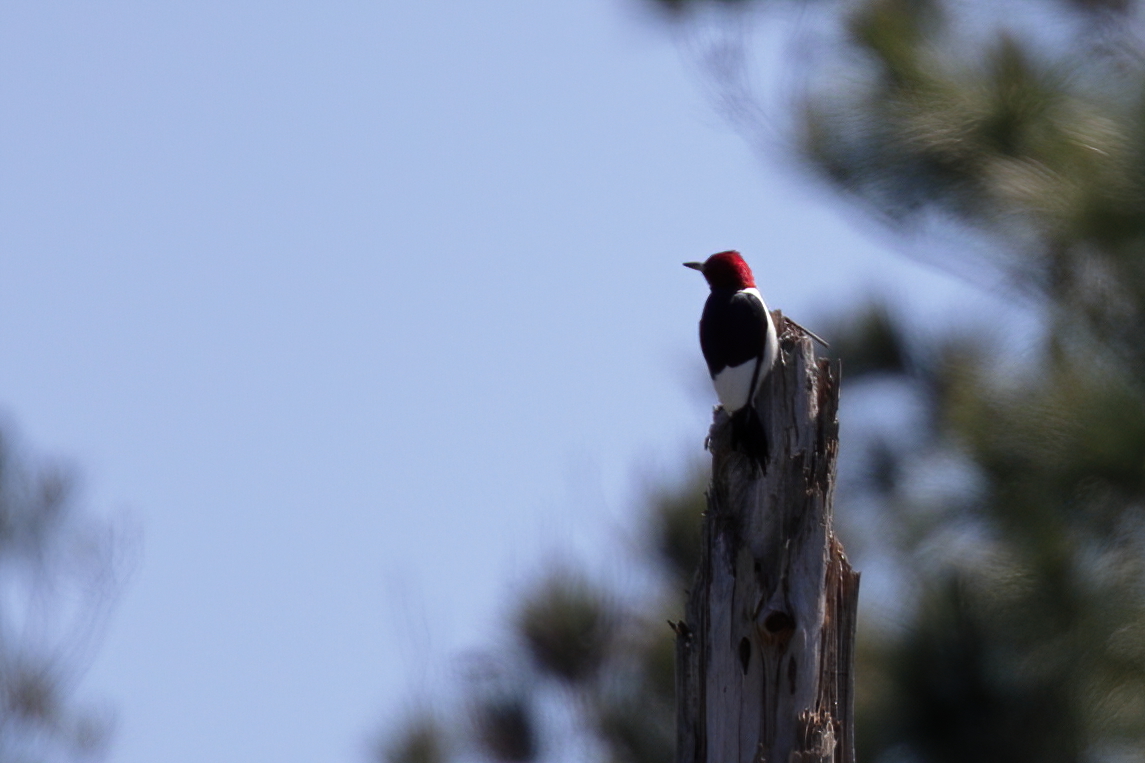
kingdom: Animalia
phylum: Chordata
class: Aves
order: Piciformes
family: Picidae
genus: Melanerpes
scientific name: Melanerpes erythrocephalus
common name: Red-headed woodpecker
